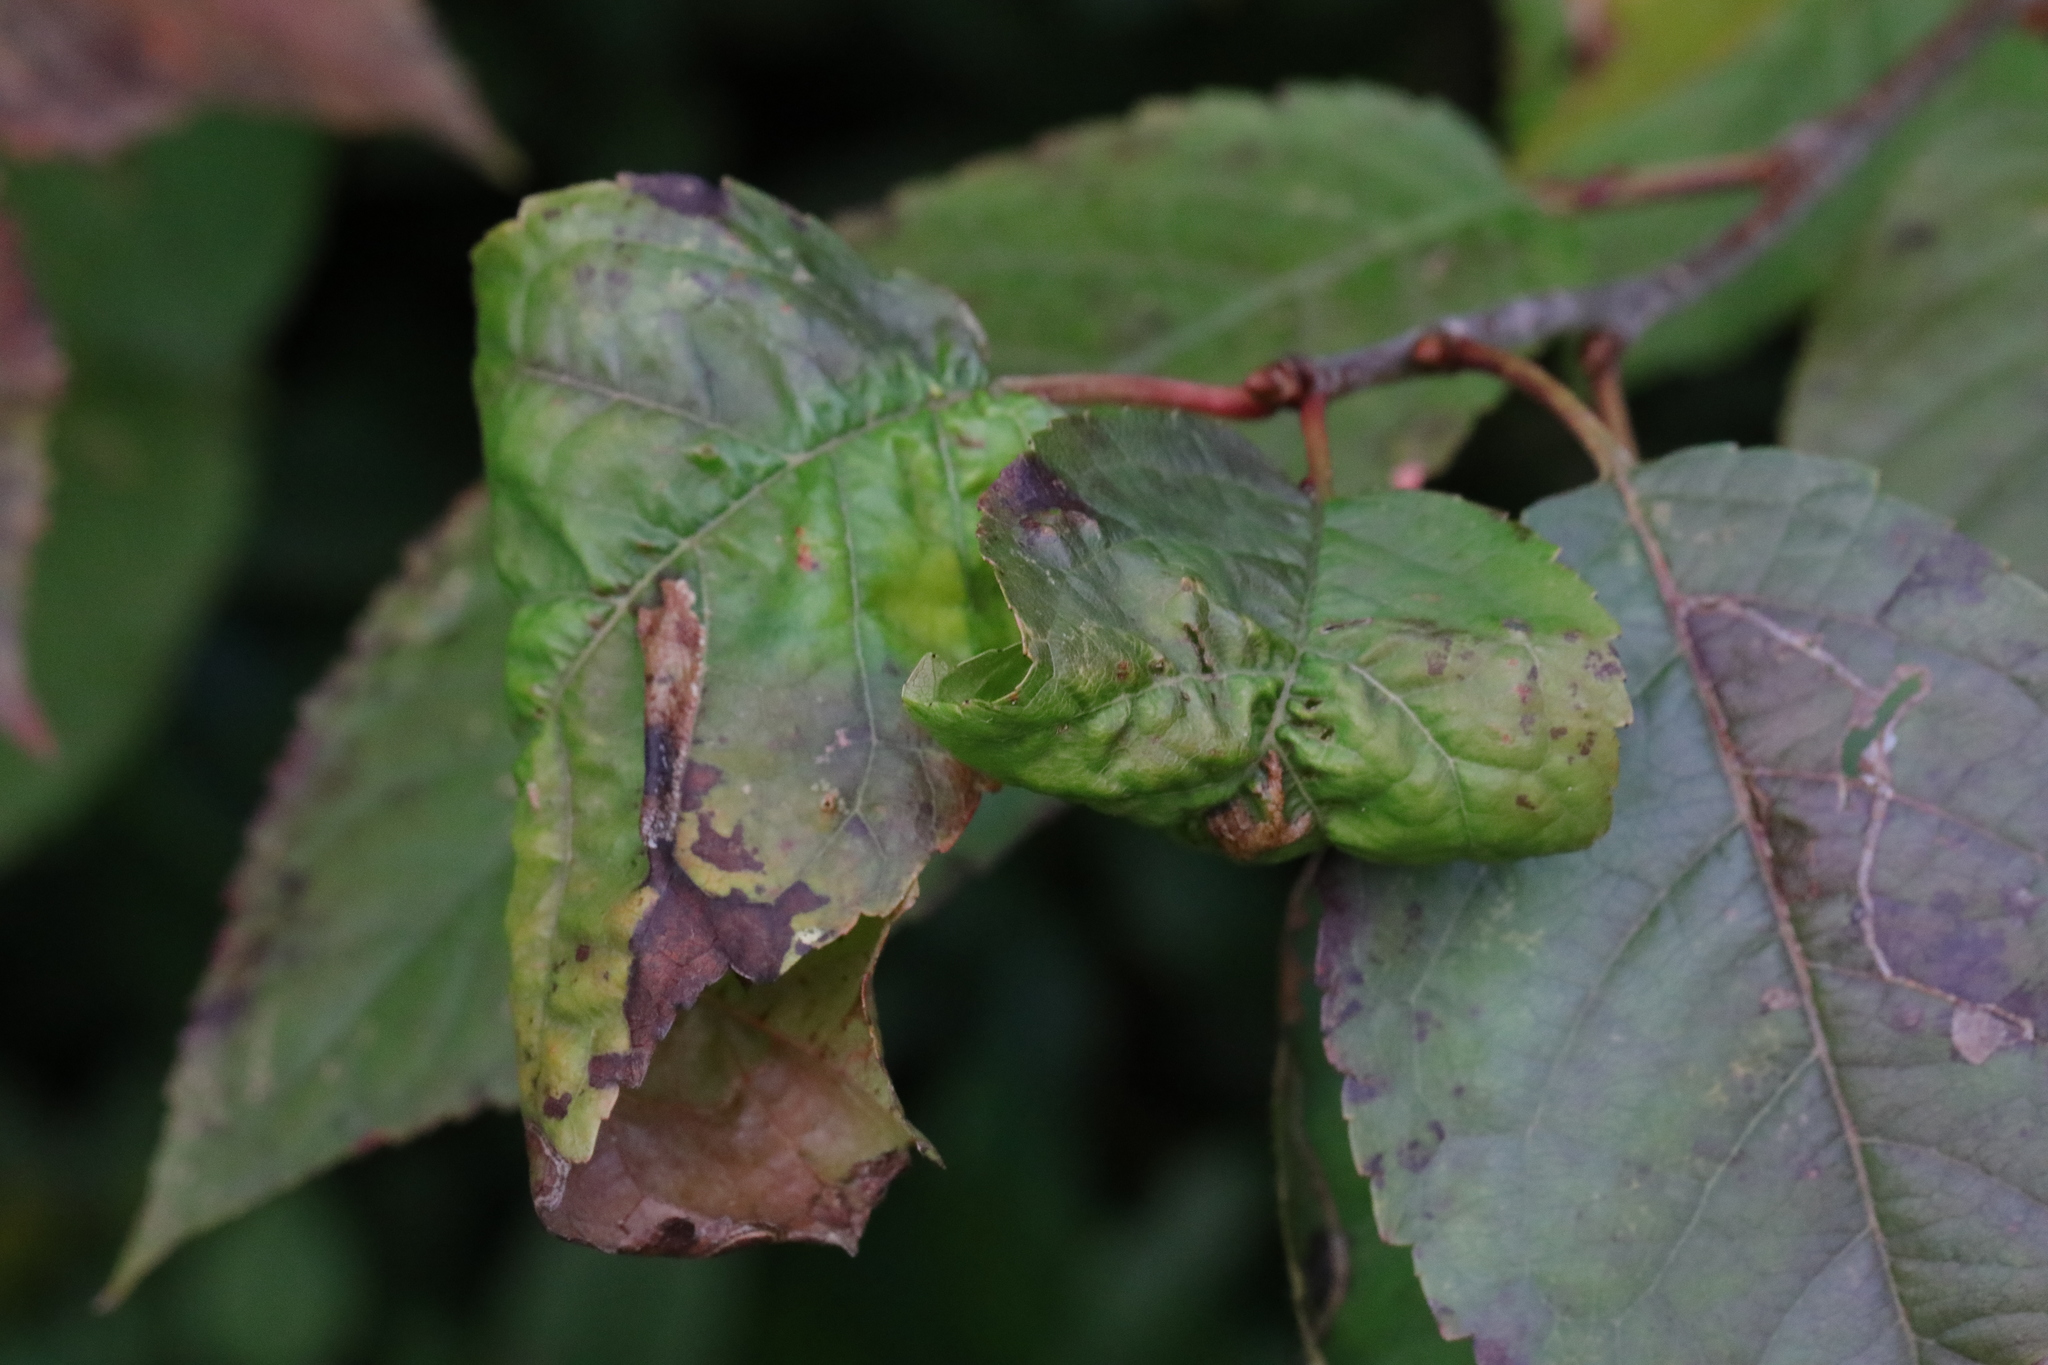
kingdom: Animalia
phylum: Arthropoda
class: Insecta
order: Hemiptera
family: Aphididae
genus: Myzus
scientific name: Myzus cerasi
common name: Black cherry aphid
